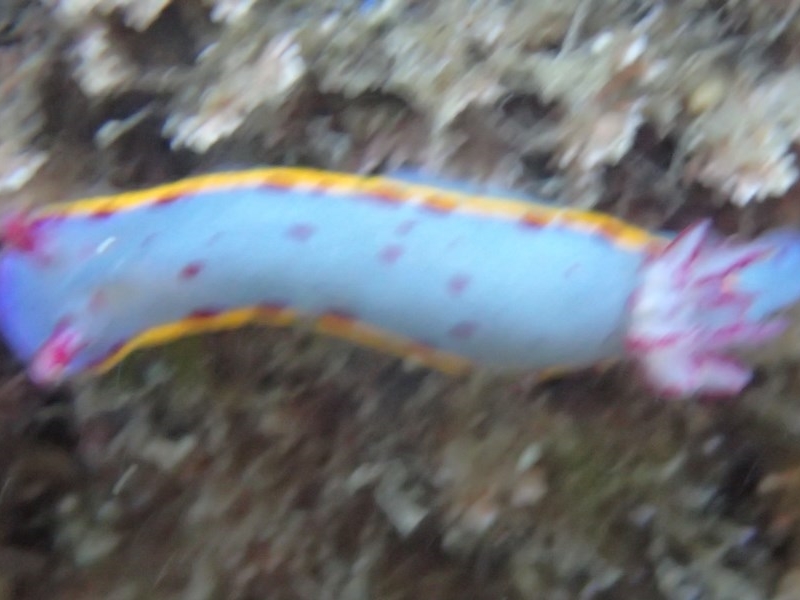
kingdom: Animalia
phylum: Mollusca
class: Gastropoda
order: Nudibranchia
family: Chromodorididae
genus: Hypselodoris
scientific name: Hypselodoris bennetti
